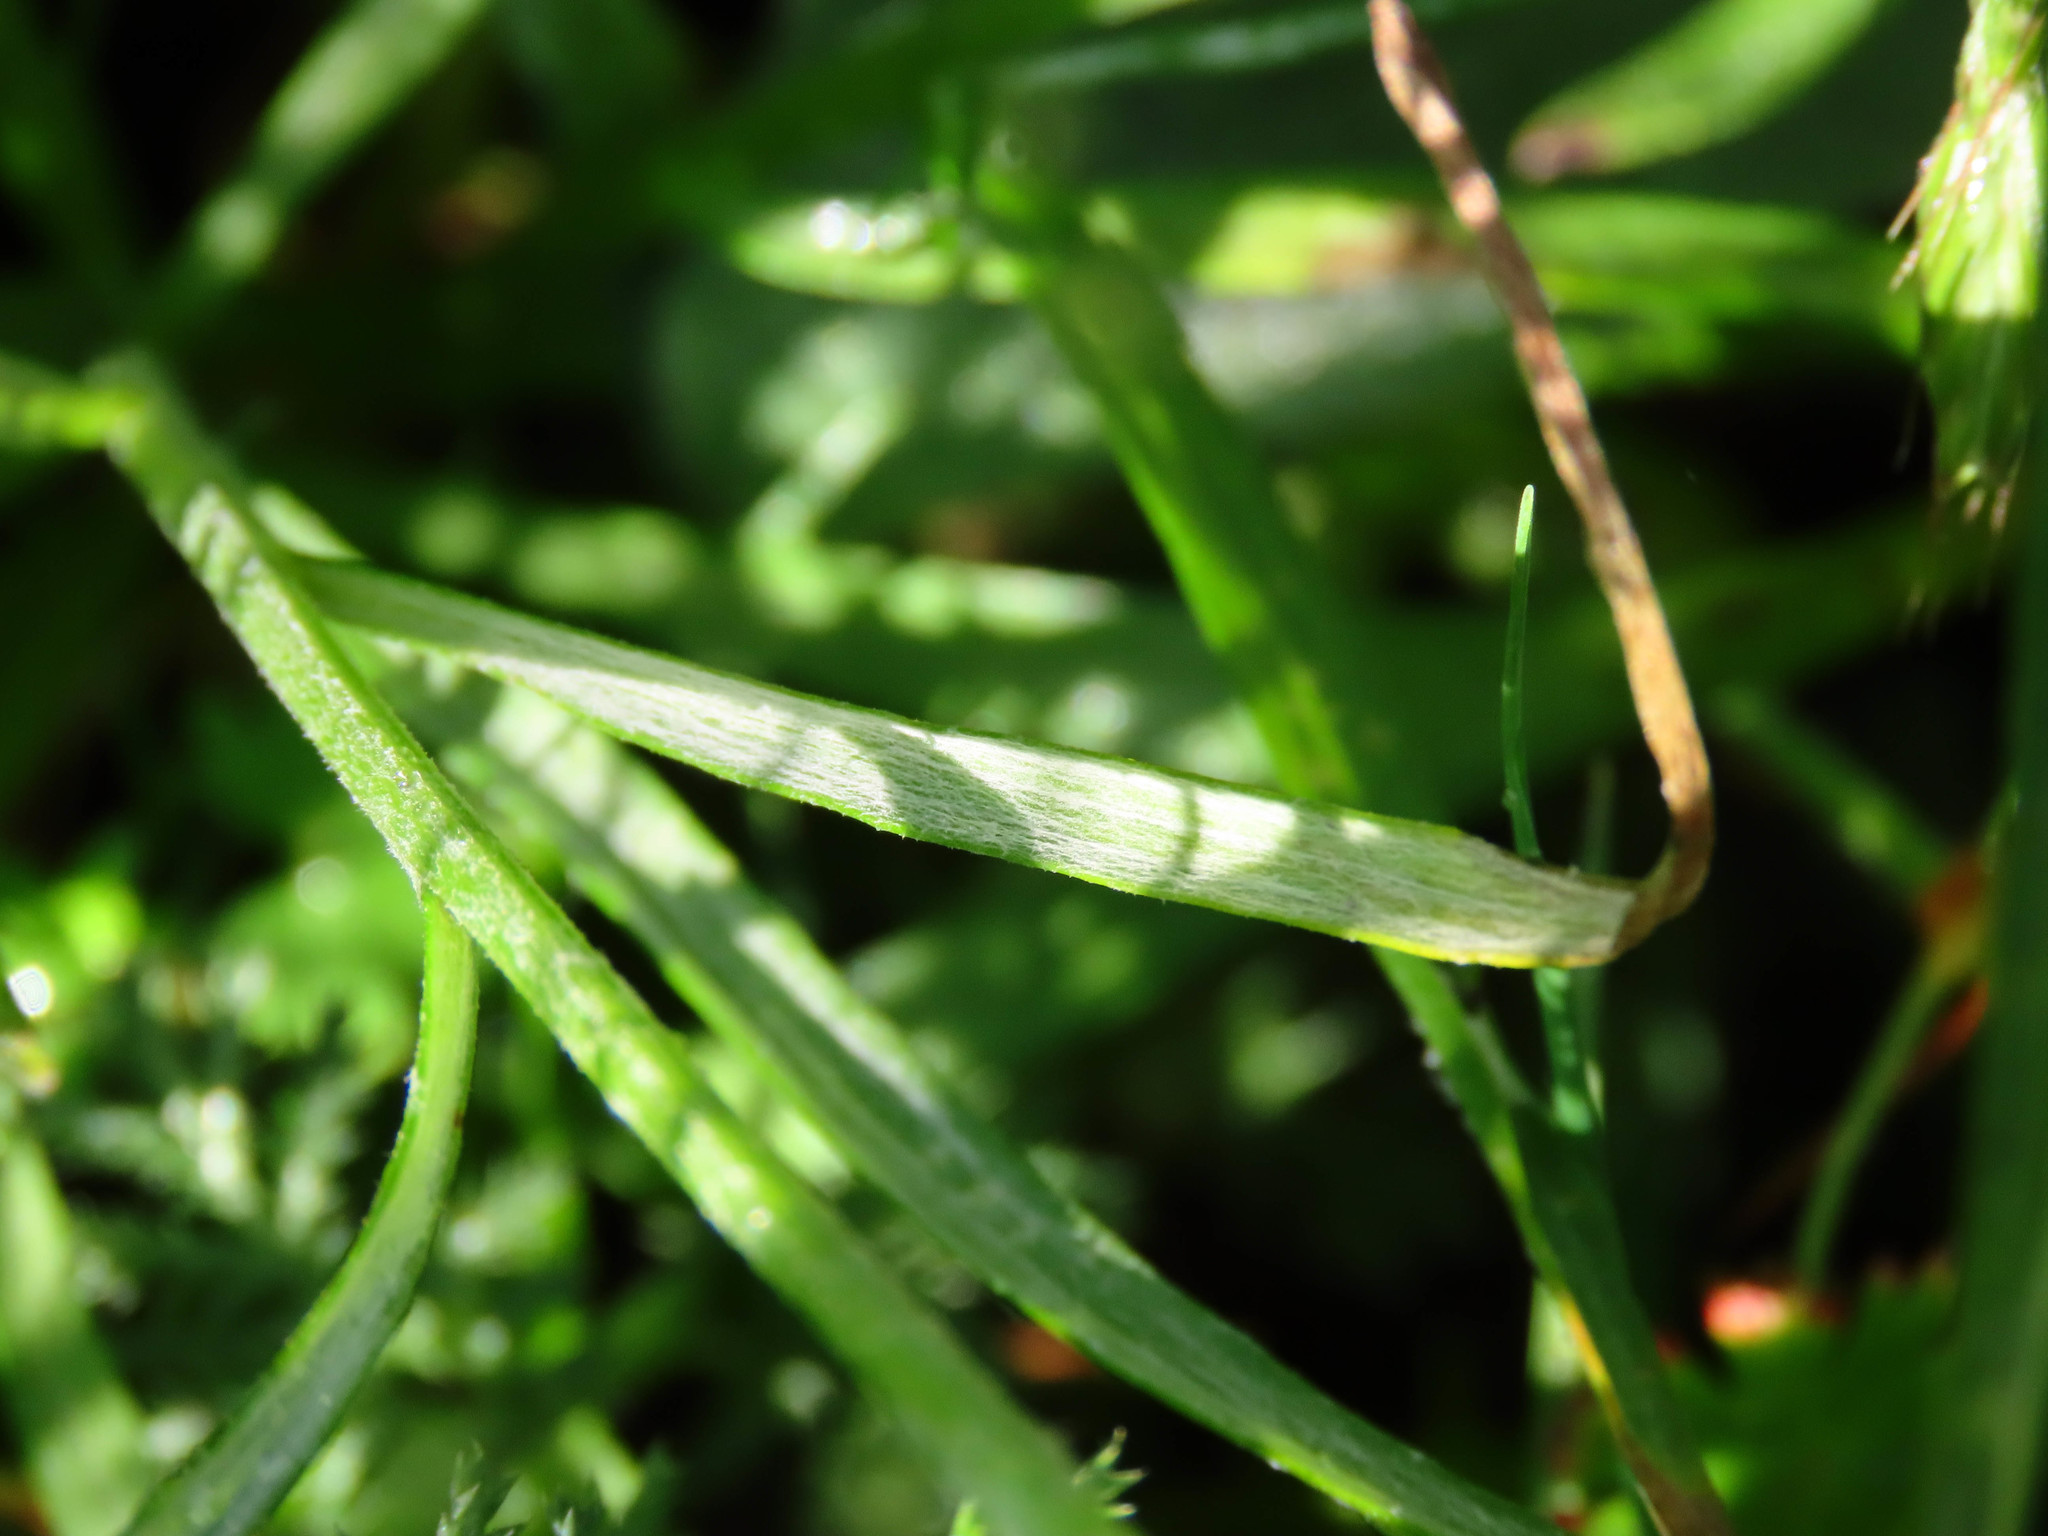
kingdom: Plantae
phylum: Tracheophyta
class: Magnoliopsida
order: Asterales
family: Asteraceae
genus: Centaurea
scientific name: Centaurea cyanus
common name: Cornflower
